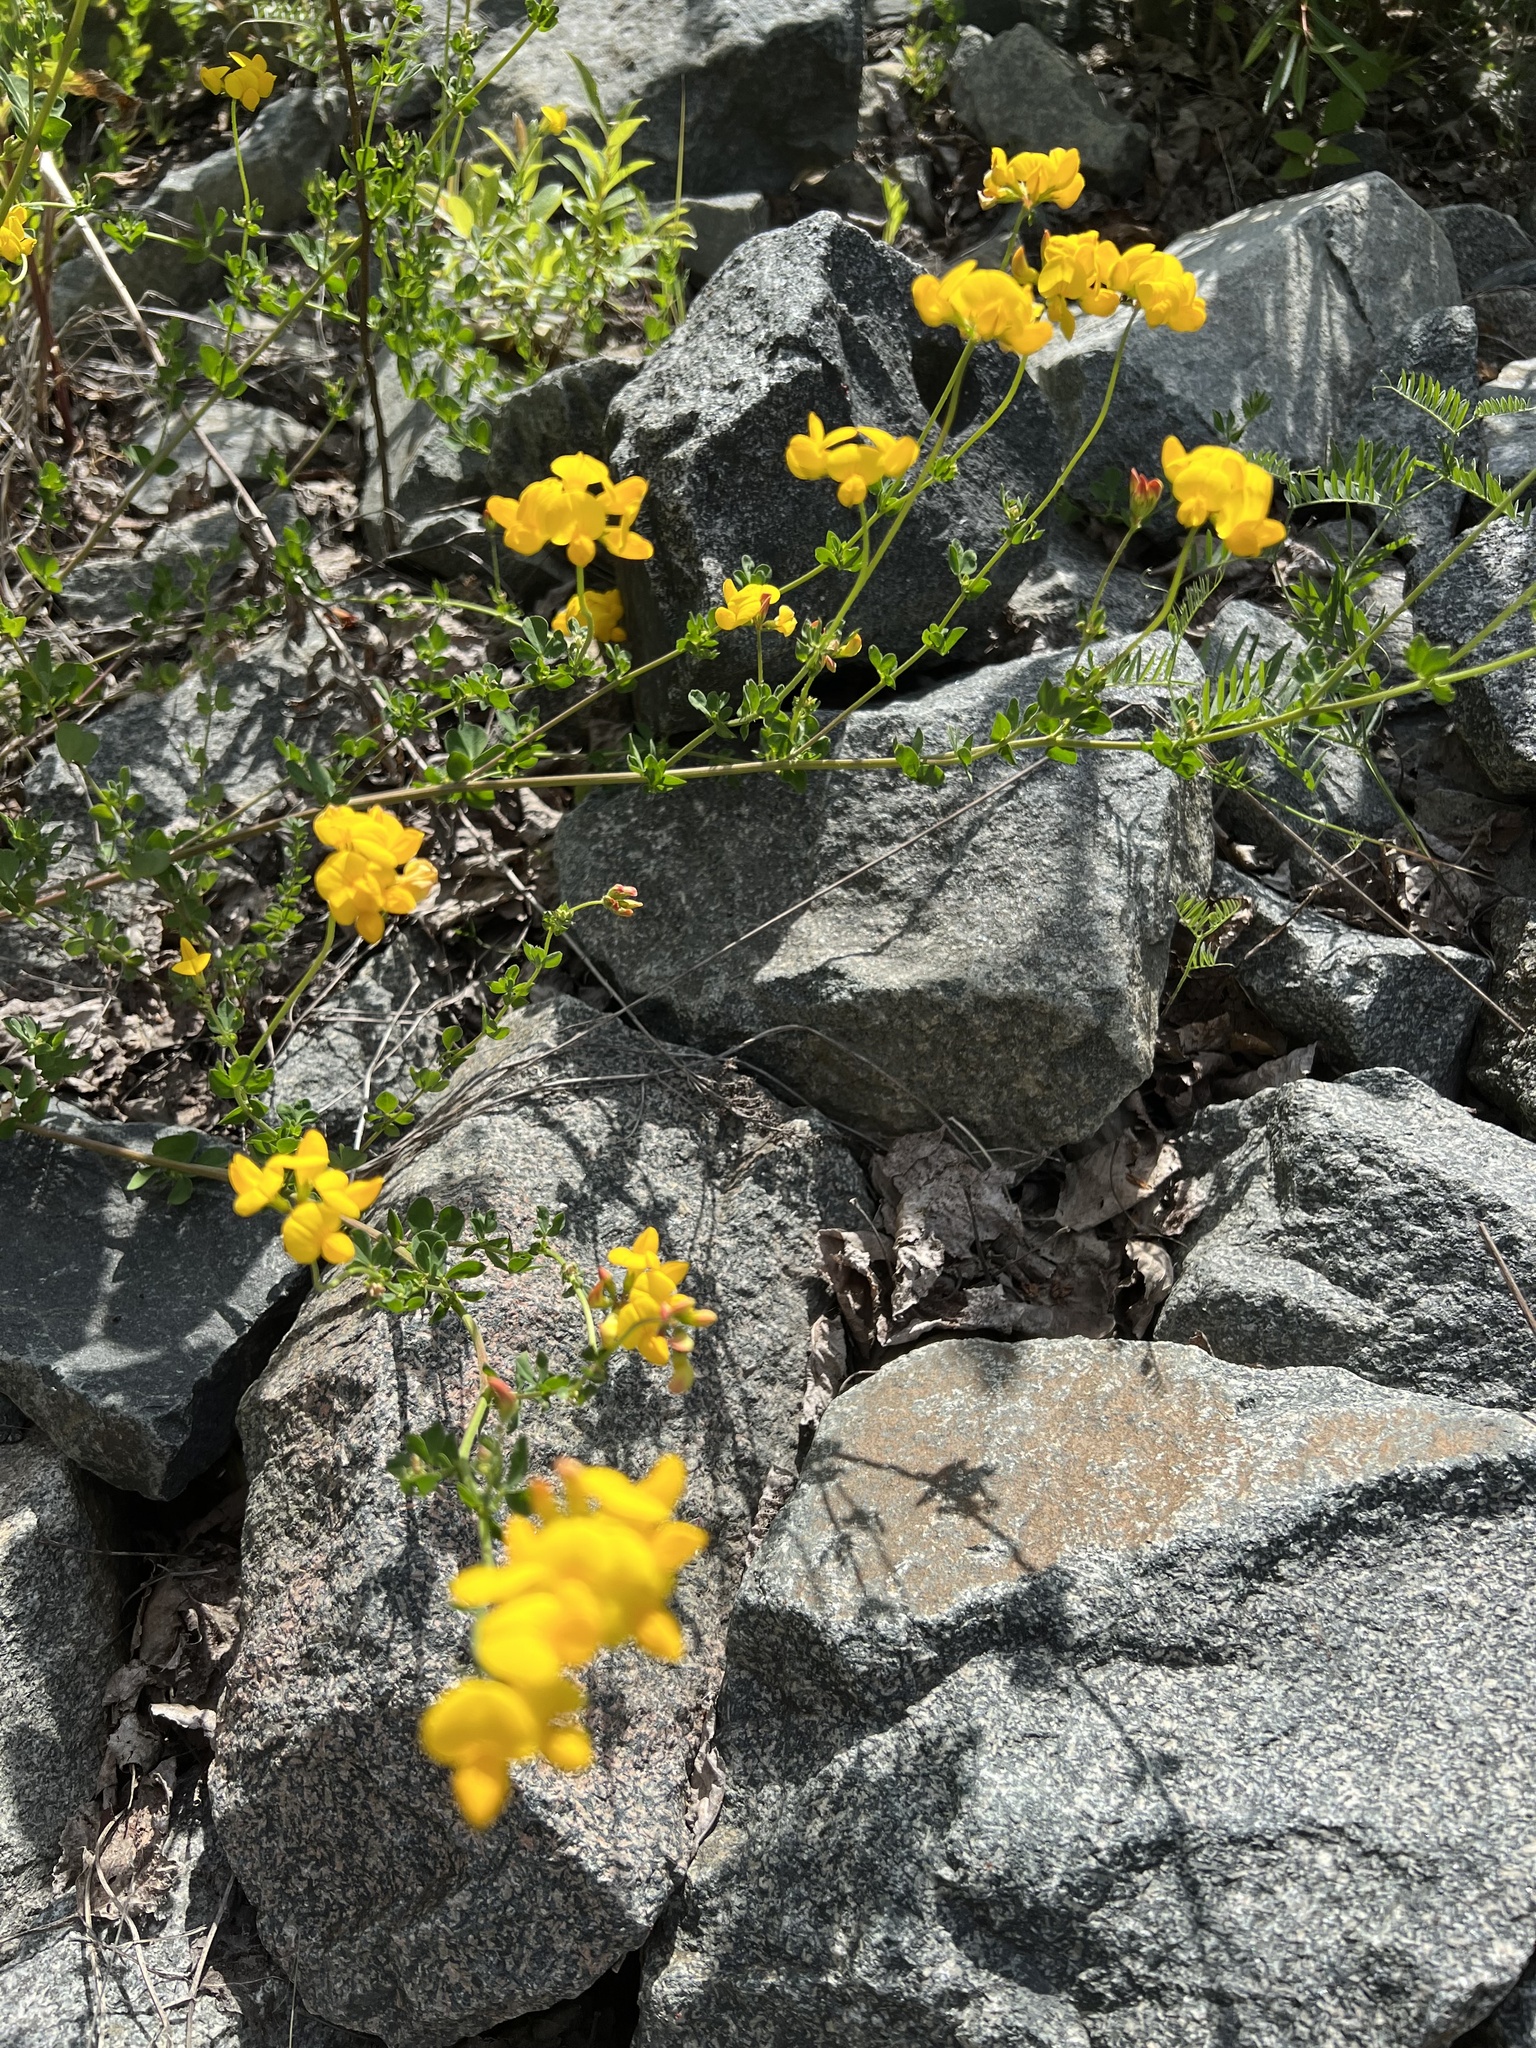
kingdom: Plantae
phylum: Tracheophyta
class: Magnoliopsida
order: Fabales
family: Fabaceae
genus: Lotus
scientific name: Lotus corniculatus
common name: Common bird's-foot-trefoil
